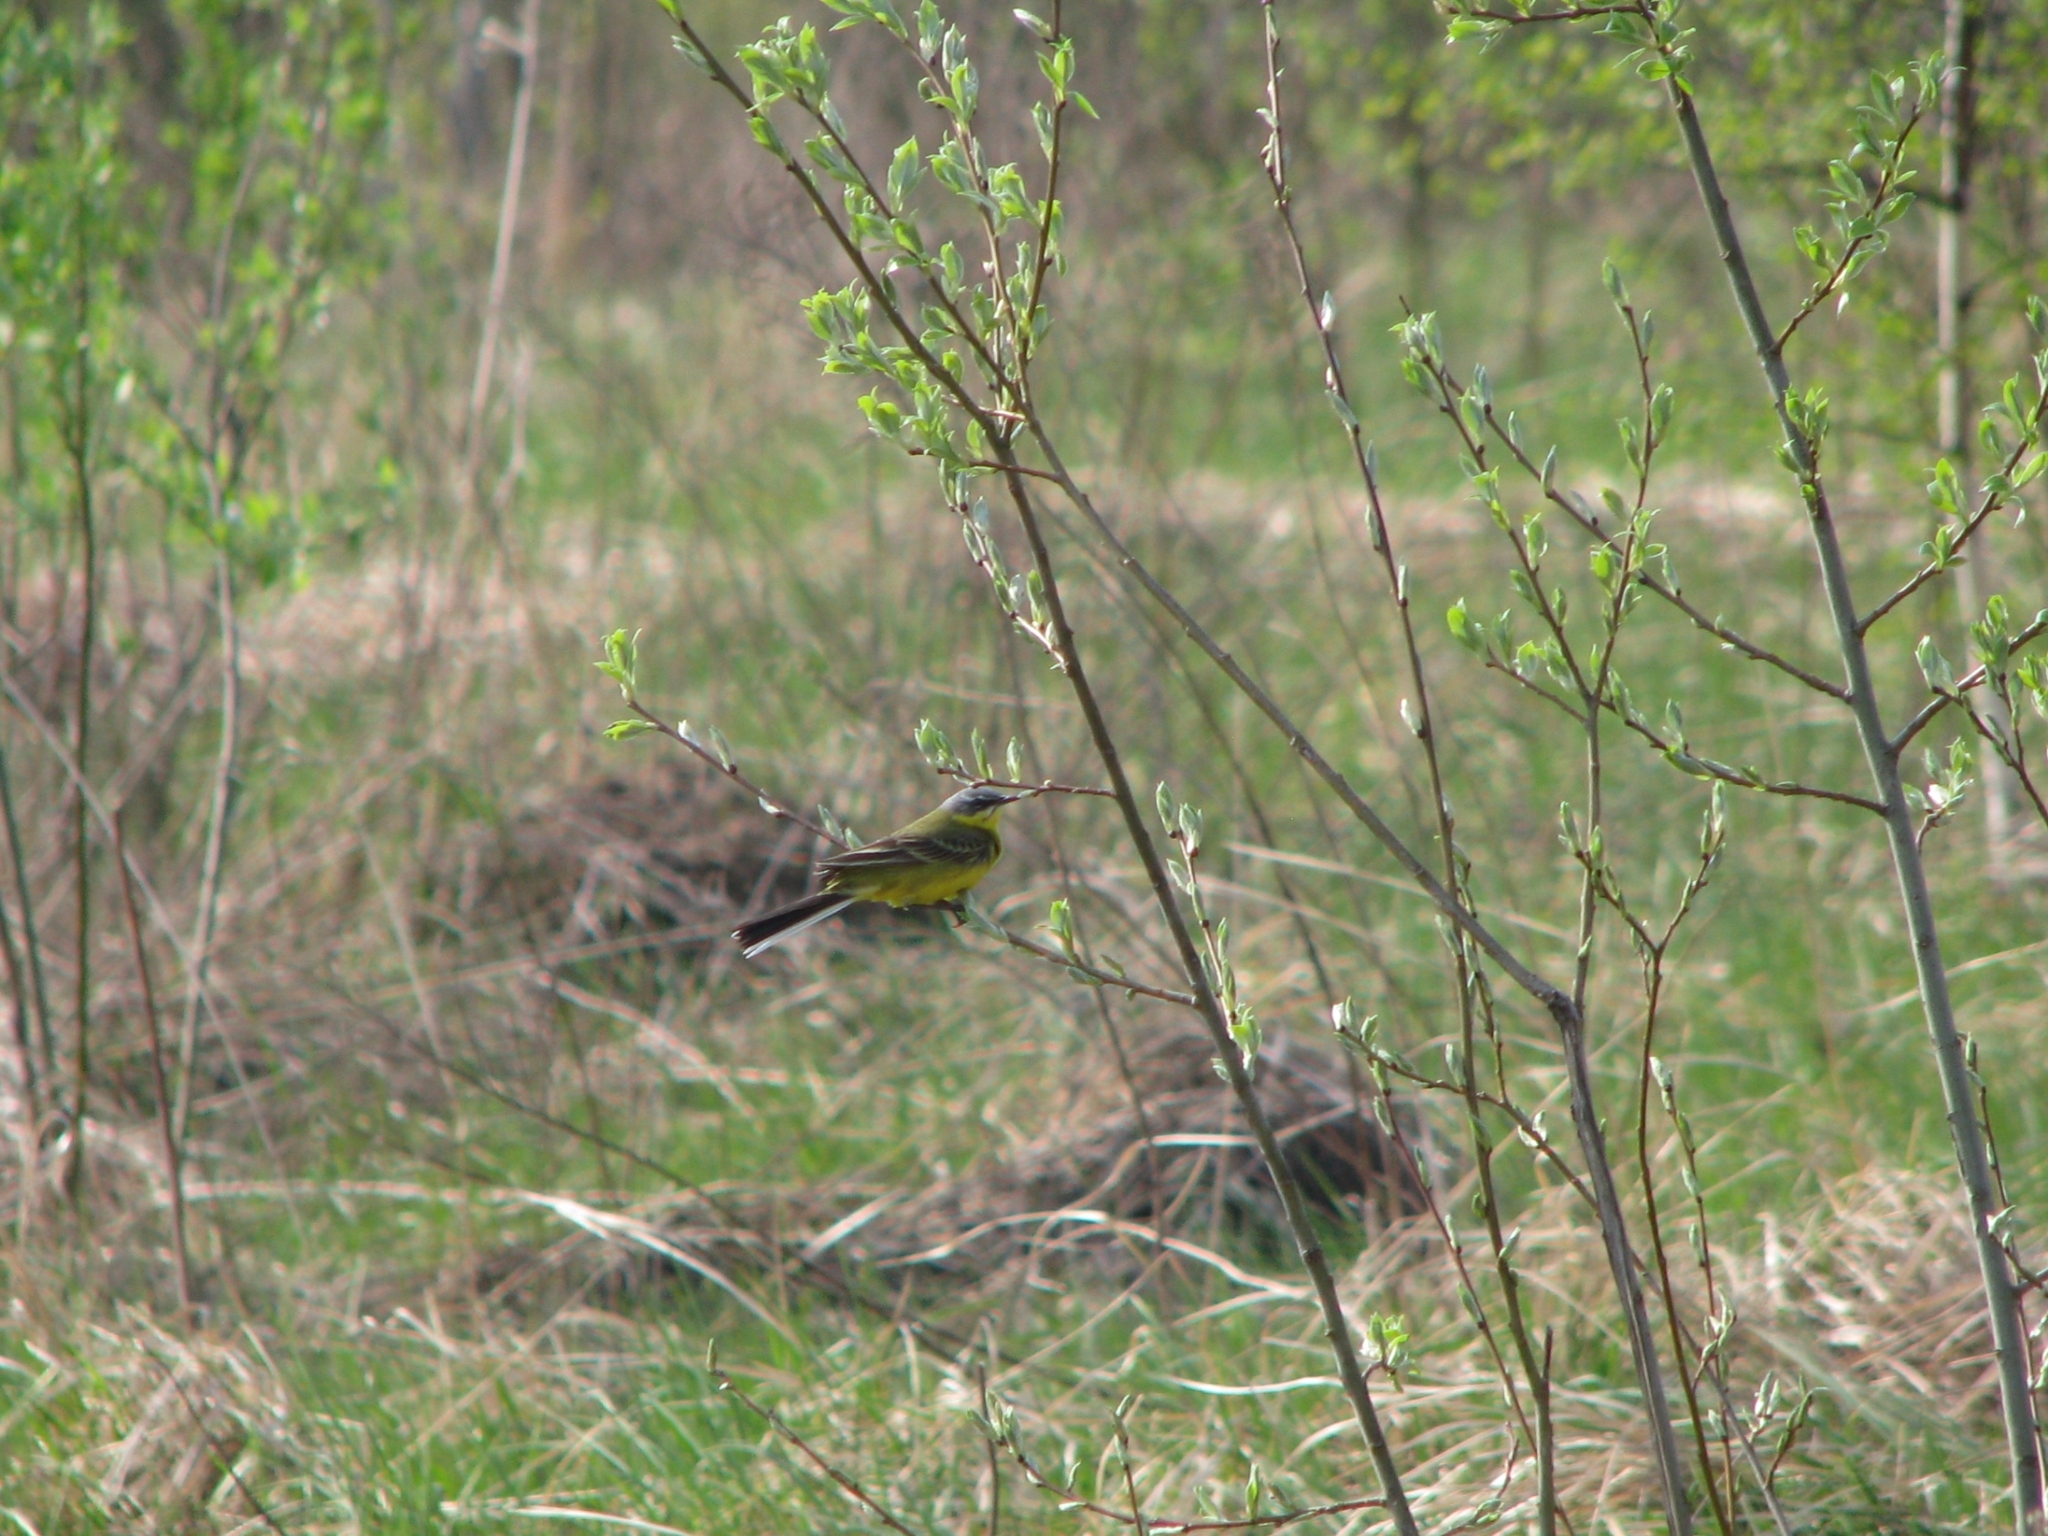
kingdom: Animalia
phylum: Chordata
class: Aves
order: Passeriformes
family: Motacillidae
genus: Motacilla
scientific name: Motacilla flava
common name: Western yellow wagtail
